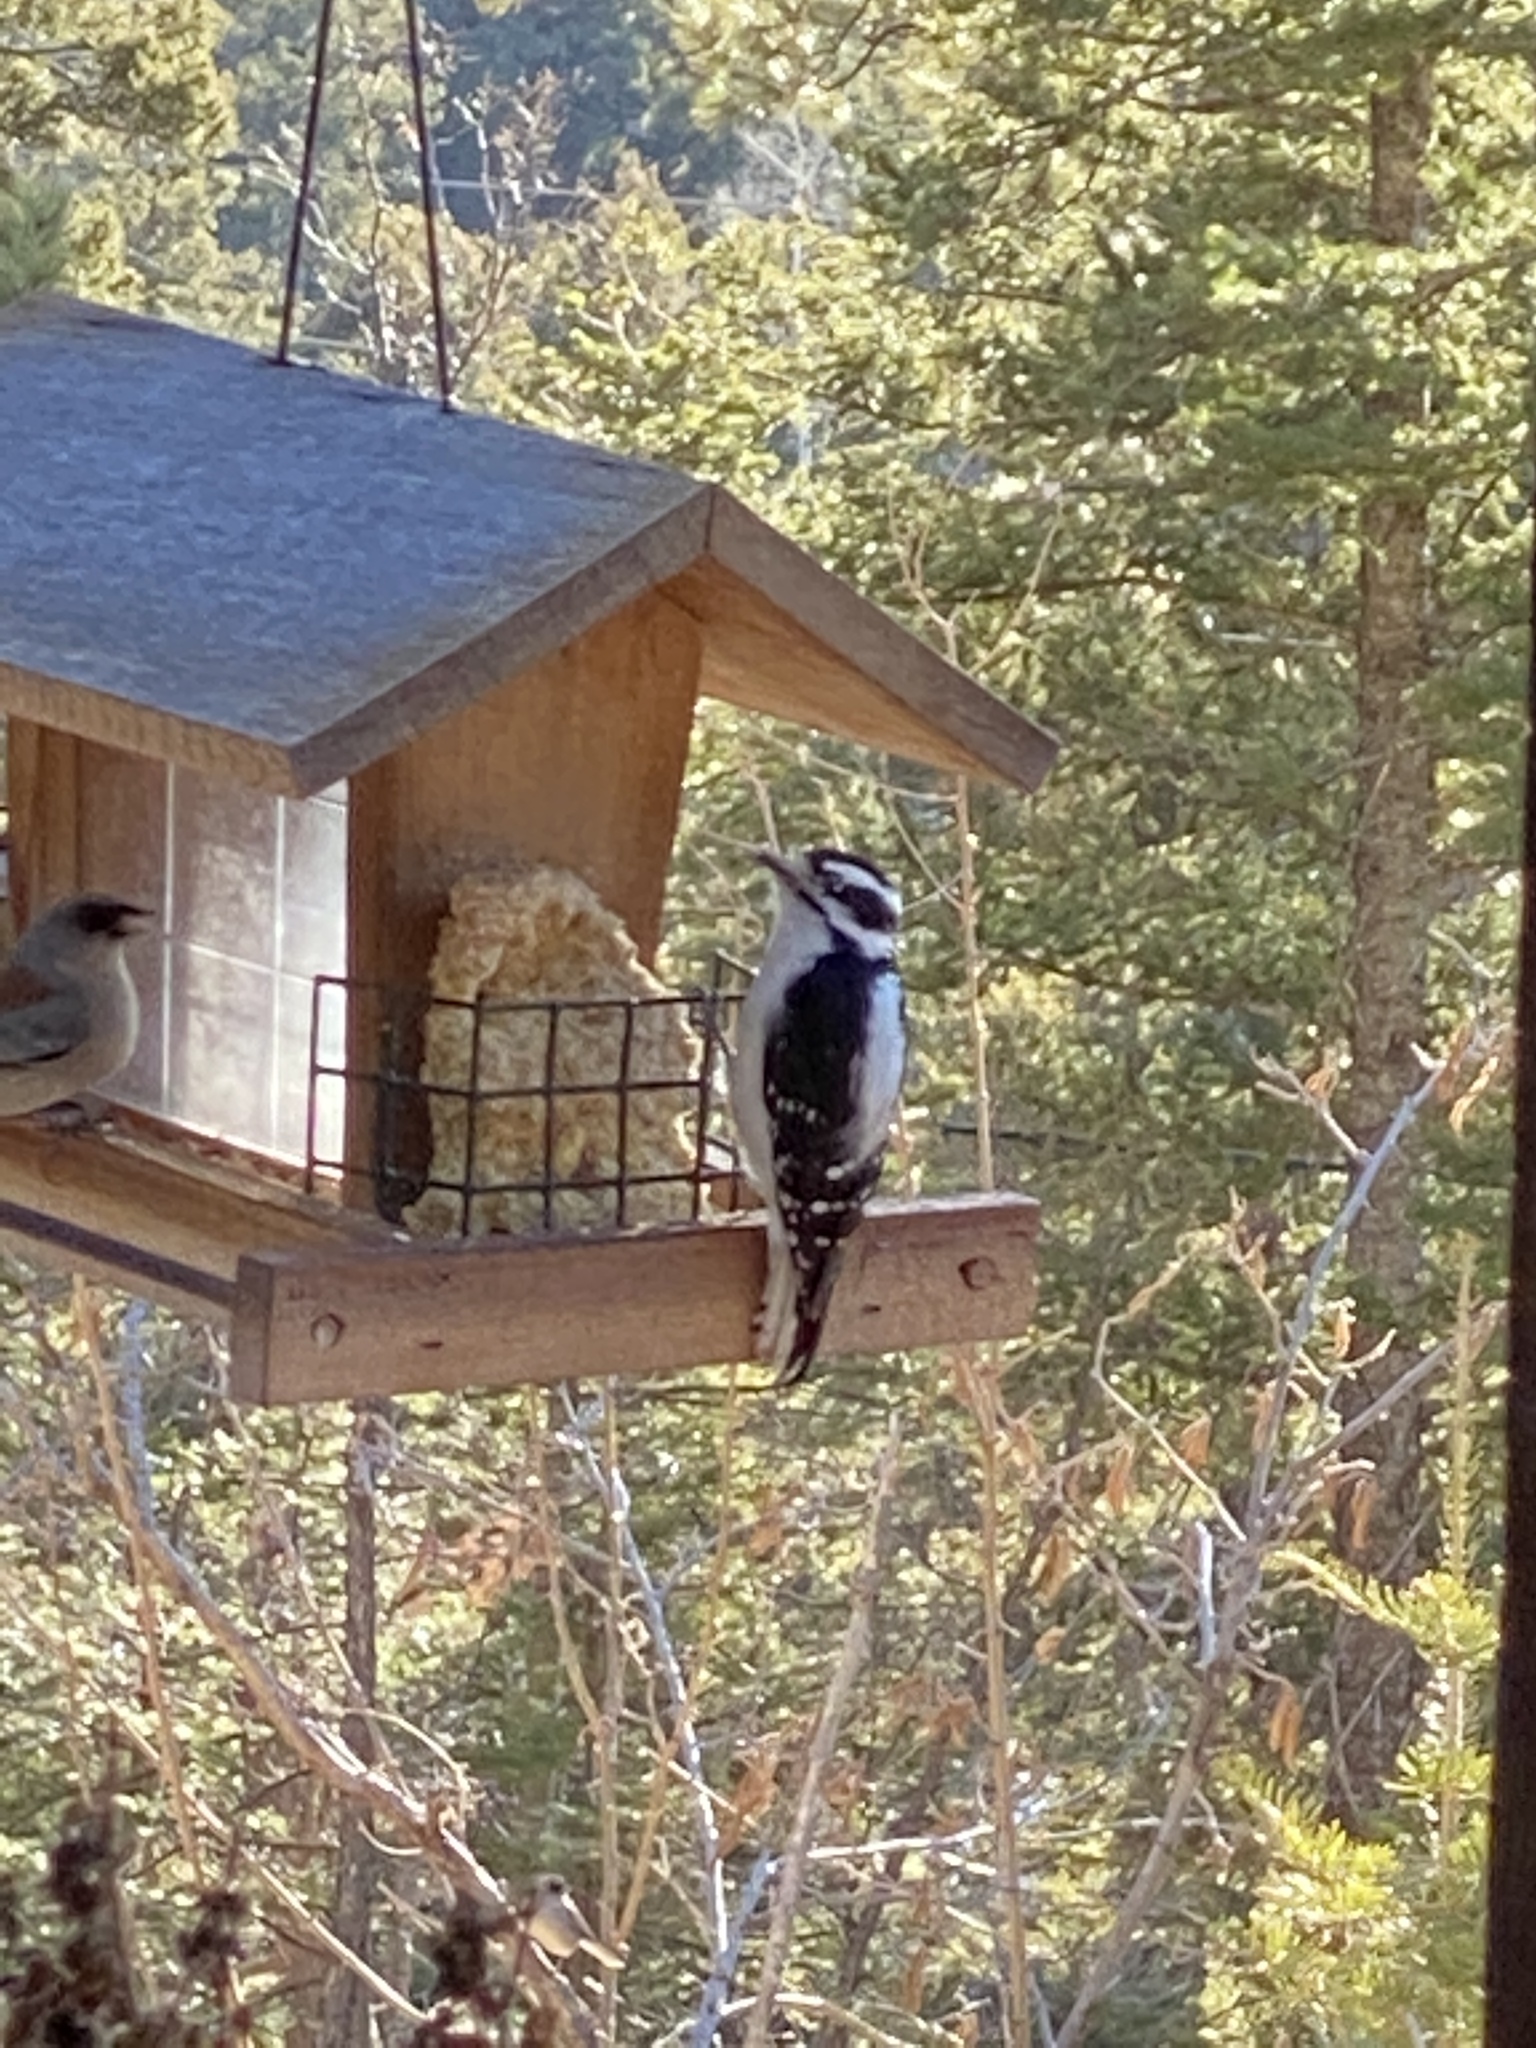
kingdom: Animalia
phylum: Chordata
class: Aves
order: Piciformes
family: Picidae
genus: Dryobates
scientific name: Dryobates pubescens
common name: Downy woodpecker
